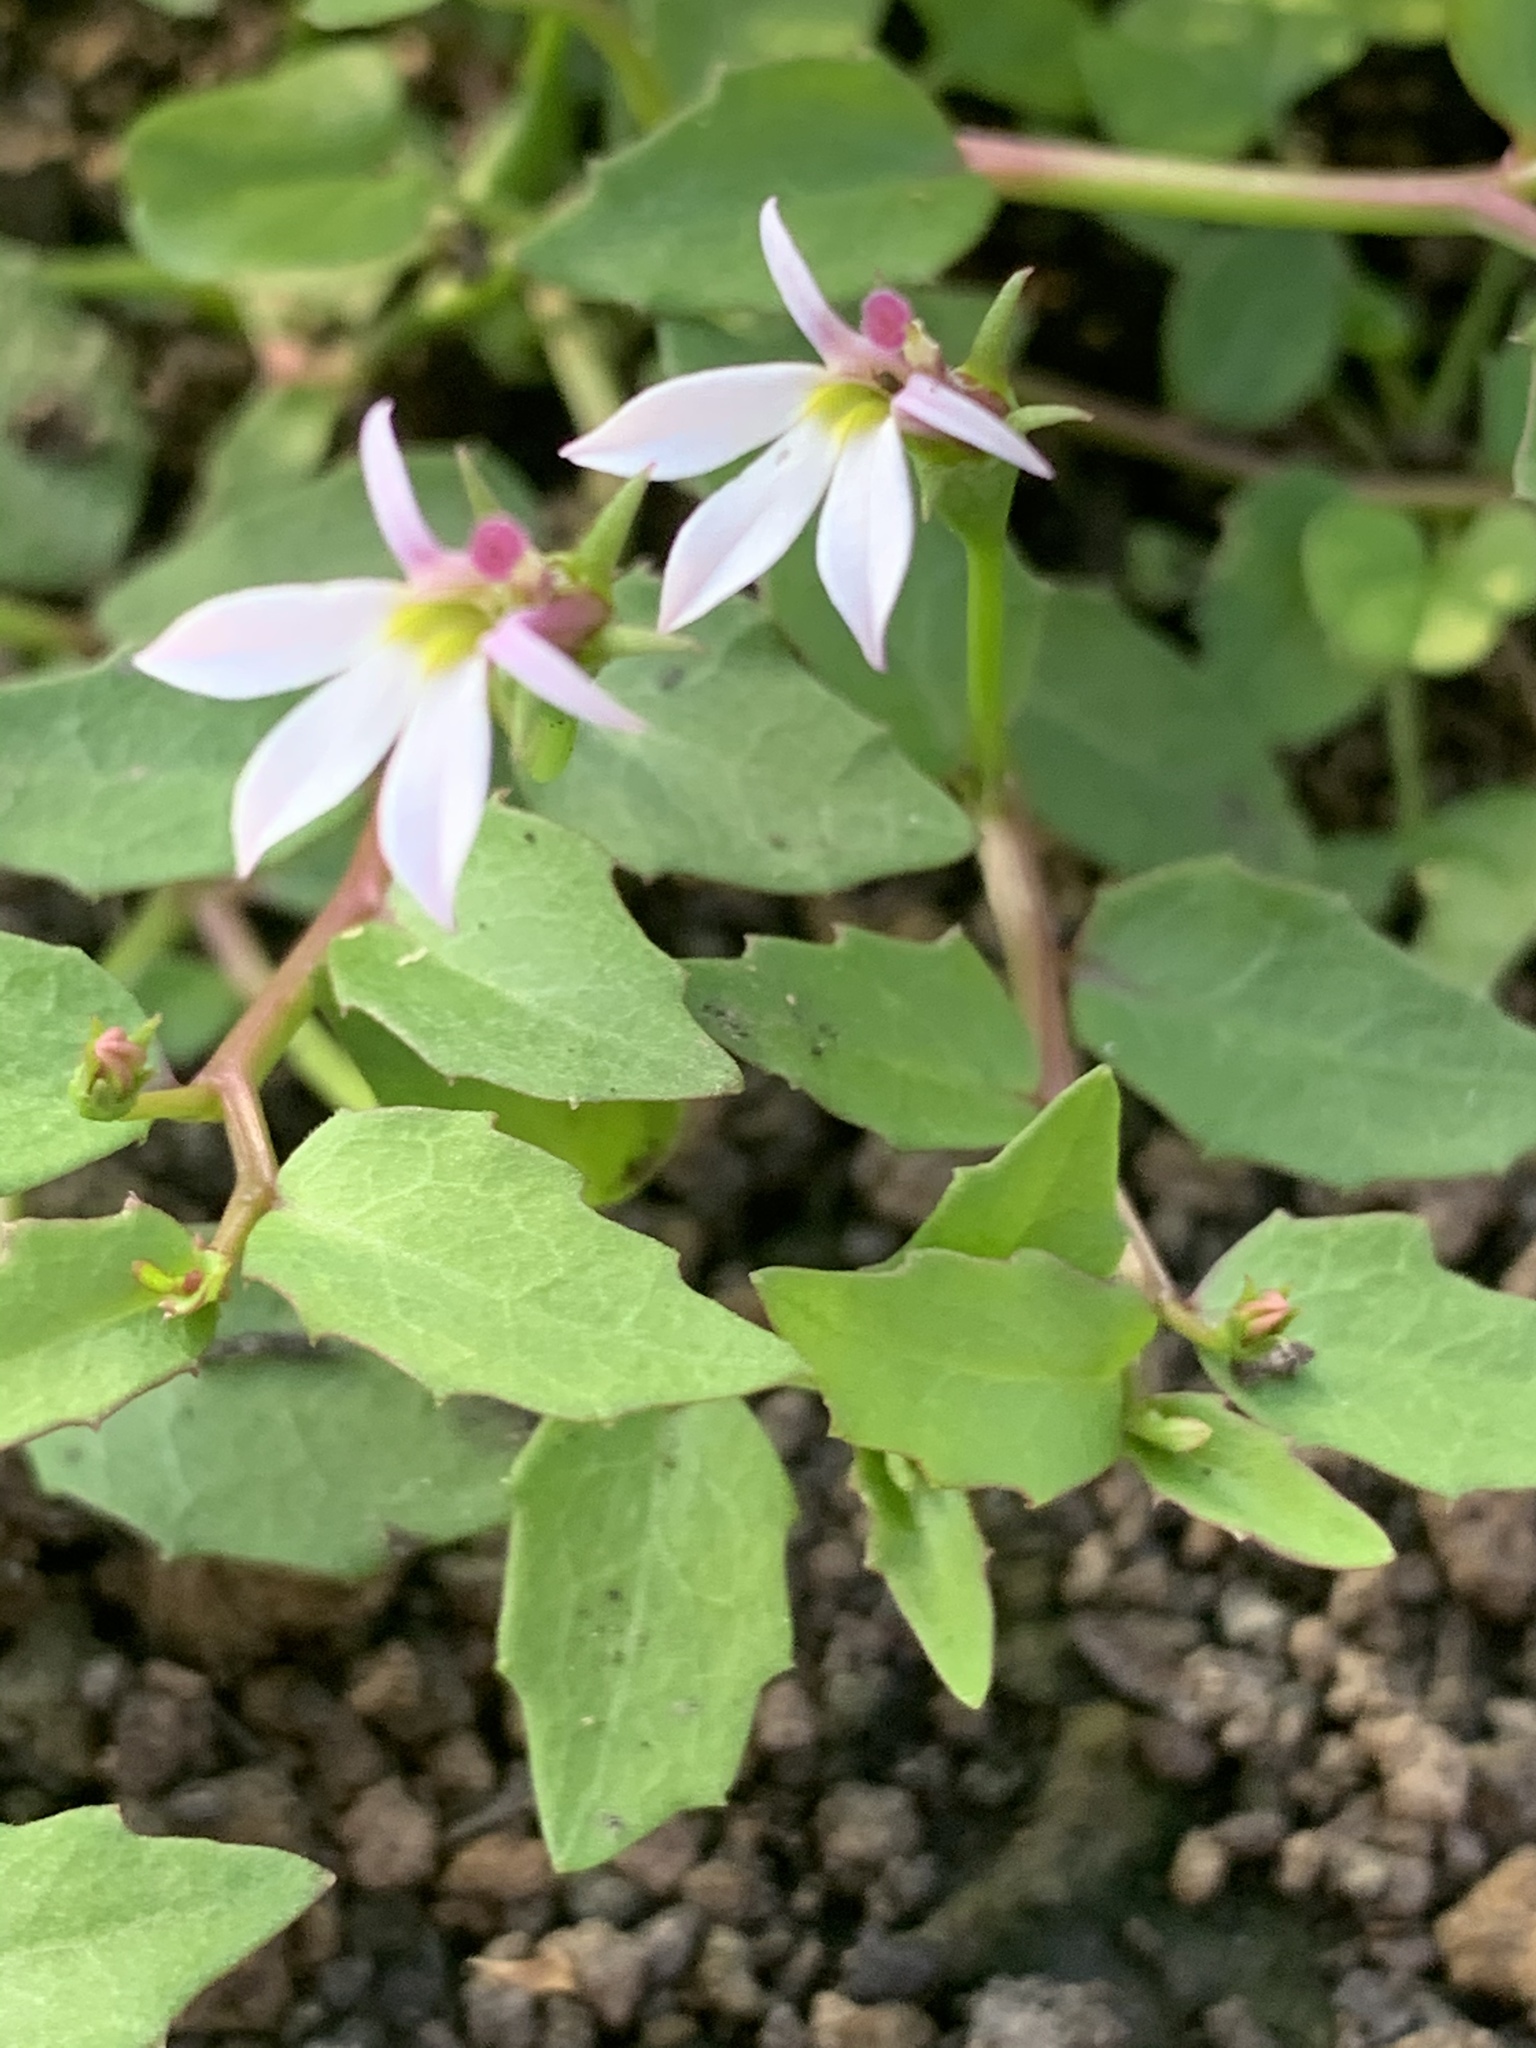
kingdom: Plantae
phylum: Tracheophyta
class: Magnoliopsida
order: Asterales
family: Campanulaceae
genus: Lobelia
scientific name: Lobelia purpurascens
